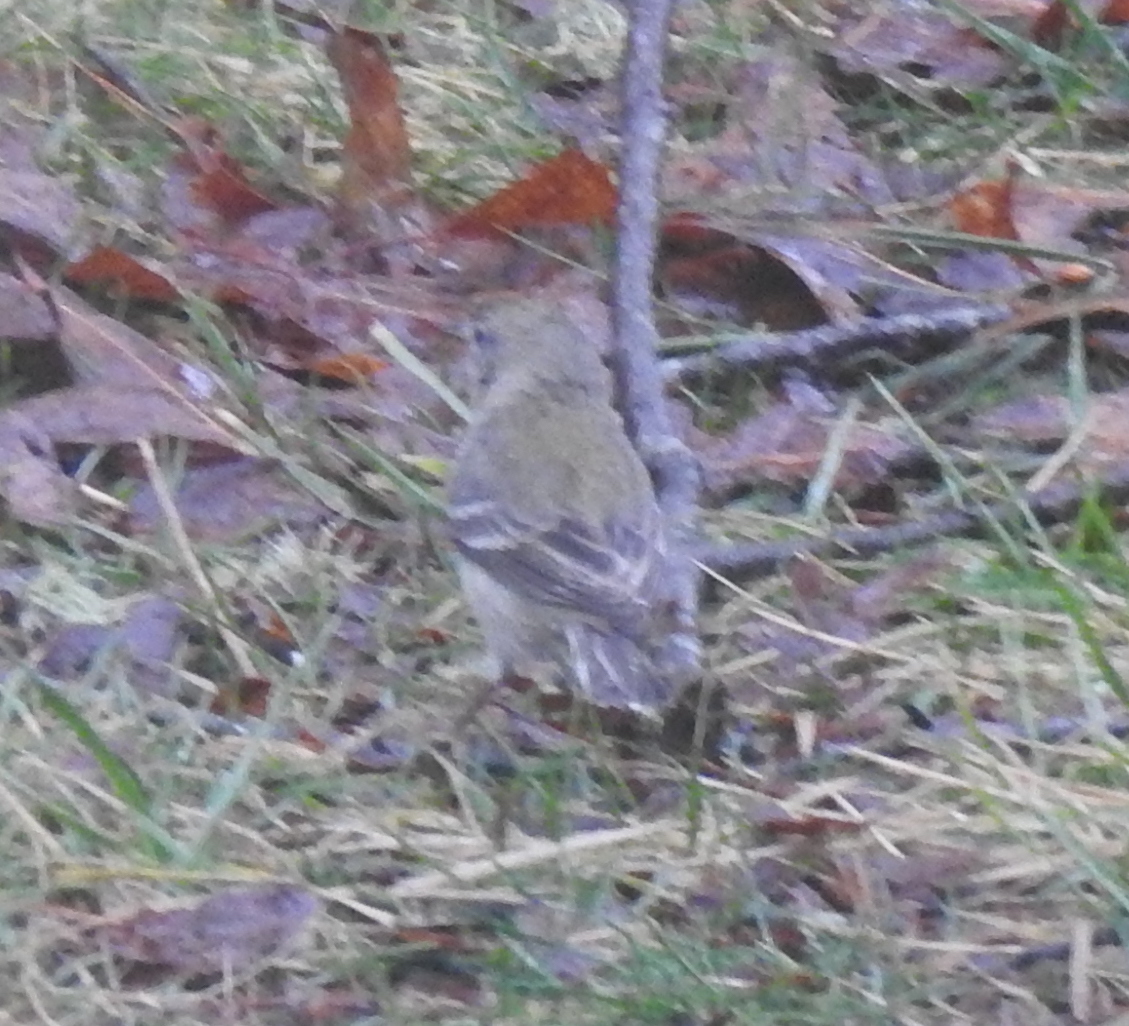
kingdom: Animalia
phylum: Chordata
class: Aves
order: Passeriformes
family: Parulidae
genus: Setophaga
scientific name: Setophaga pinus
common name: Pine warbler
